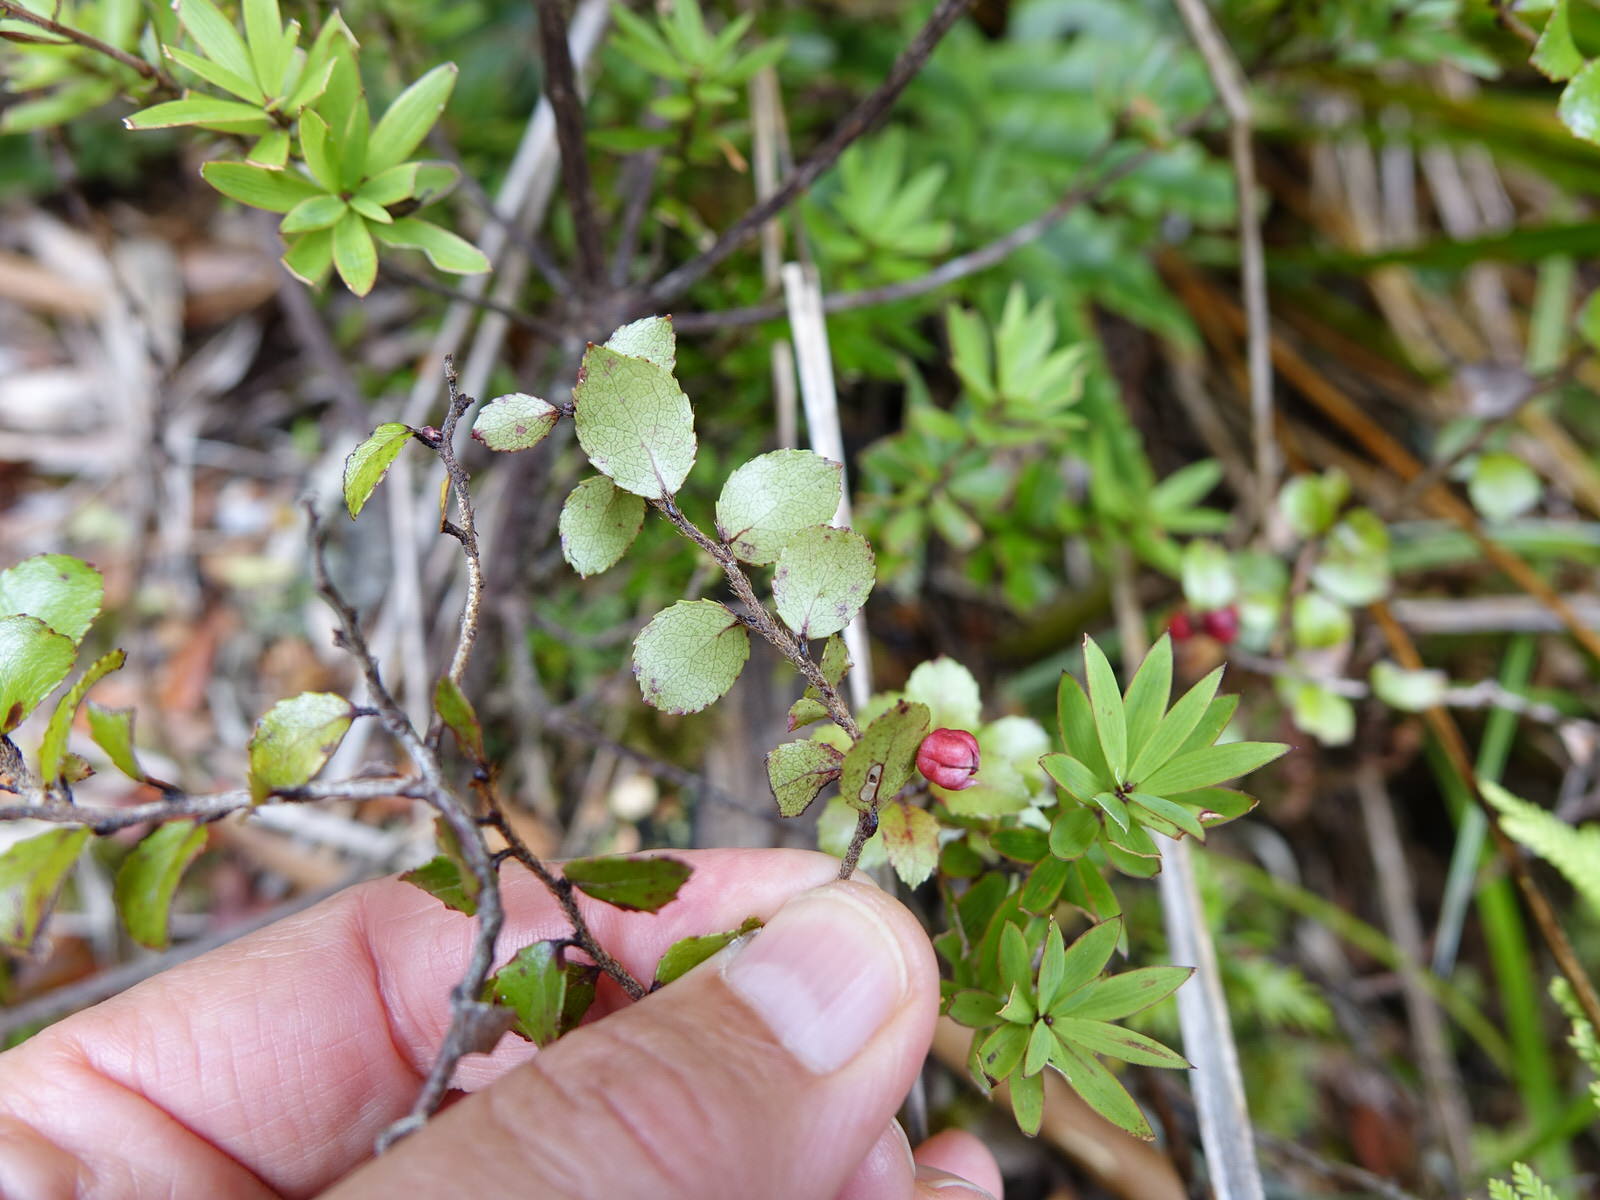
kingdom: Plantae
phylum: Tracheophyta
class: Magnoliopsida
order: Ericales
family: Ericaceae
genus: Gaultheria
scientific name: Gaultheria antipoda
